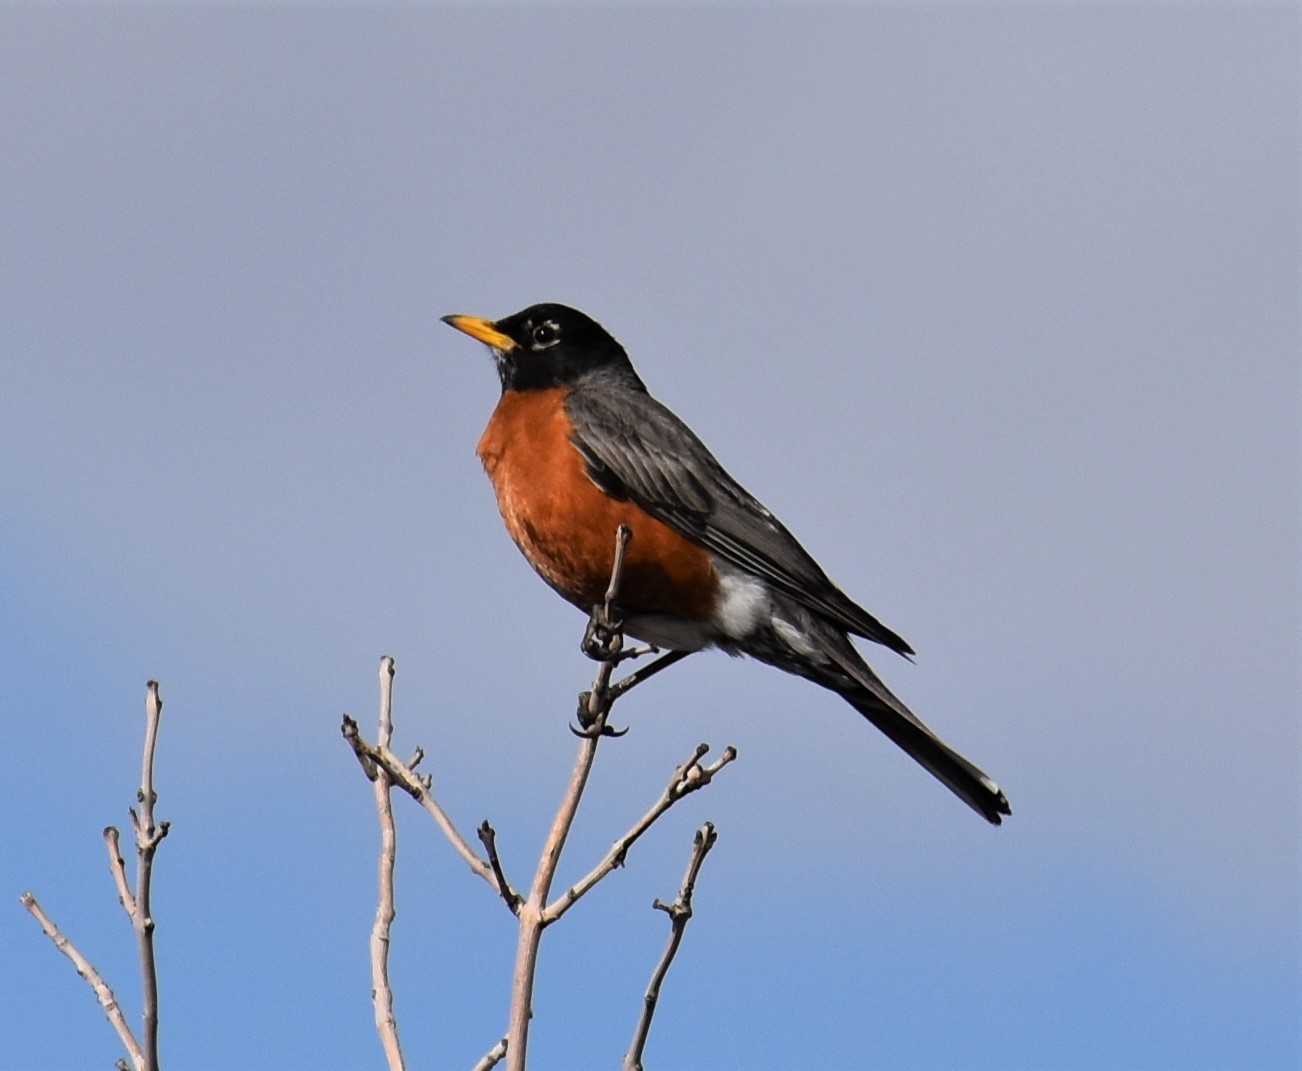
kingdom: Animalia
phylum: Chordata
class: Aves
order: Passeriformes
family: Turdidae
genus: Turdus
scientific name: Turdus migratorius
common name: American robin
